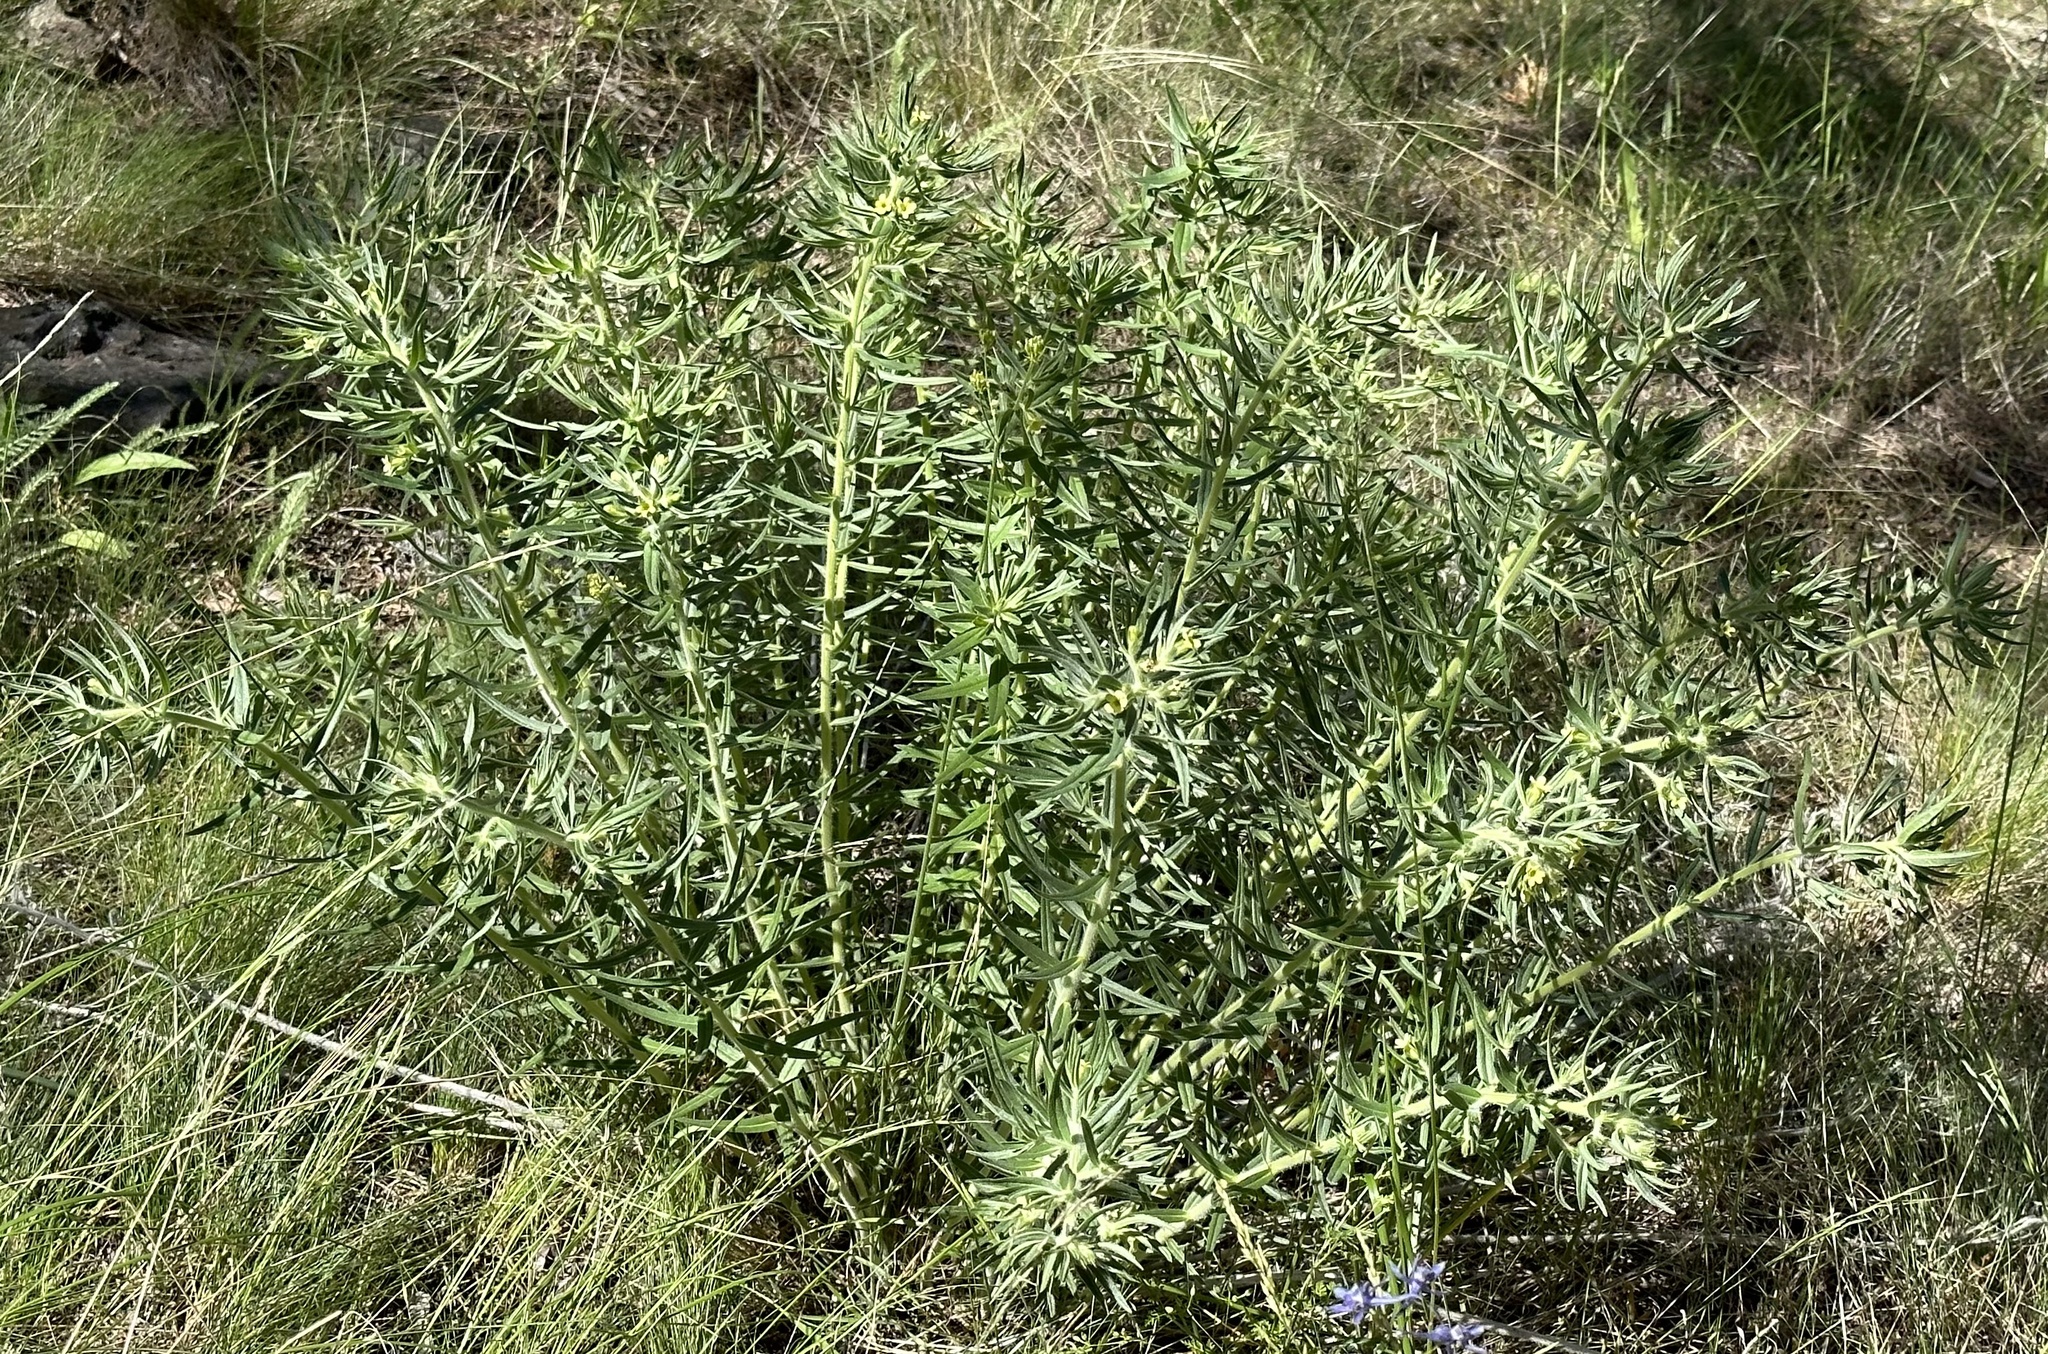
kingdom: Plantae
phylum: Tracheophyta
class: Magnoliopsida
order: Boraginales
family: Boraginaceae
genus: Lithospermum
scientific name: Lithospermum ruderale
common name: Western gromwell
